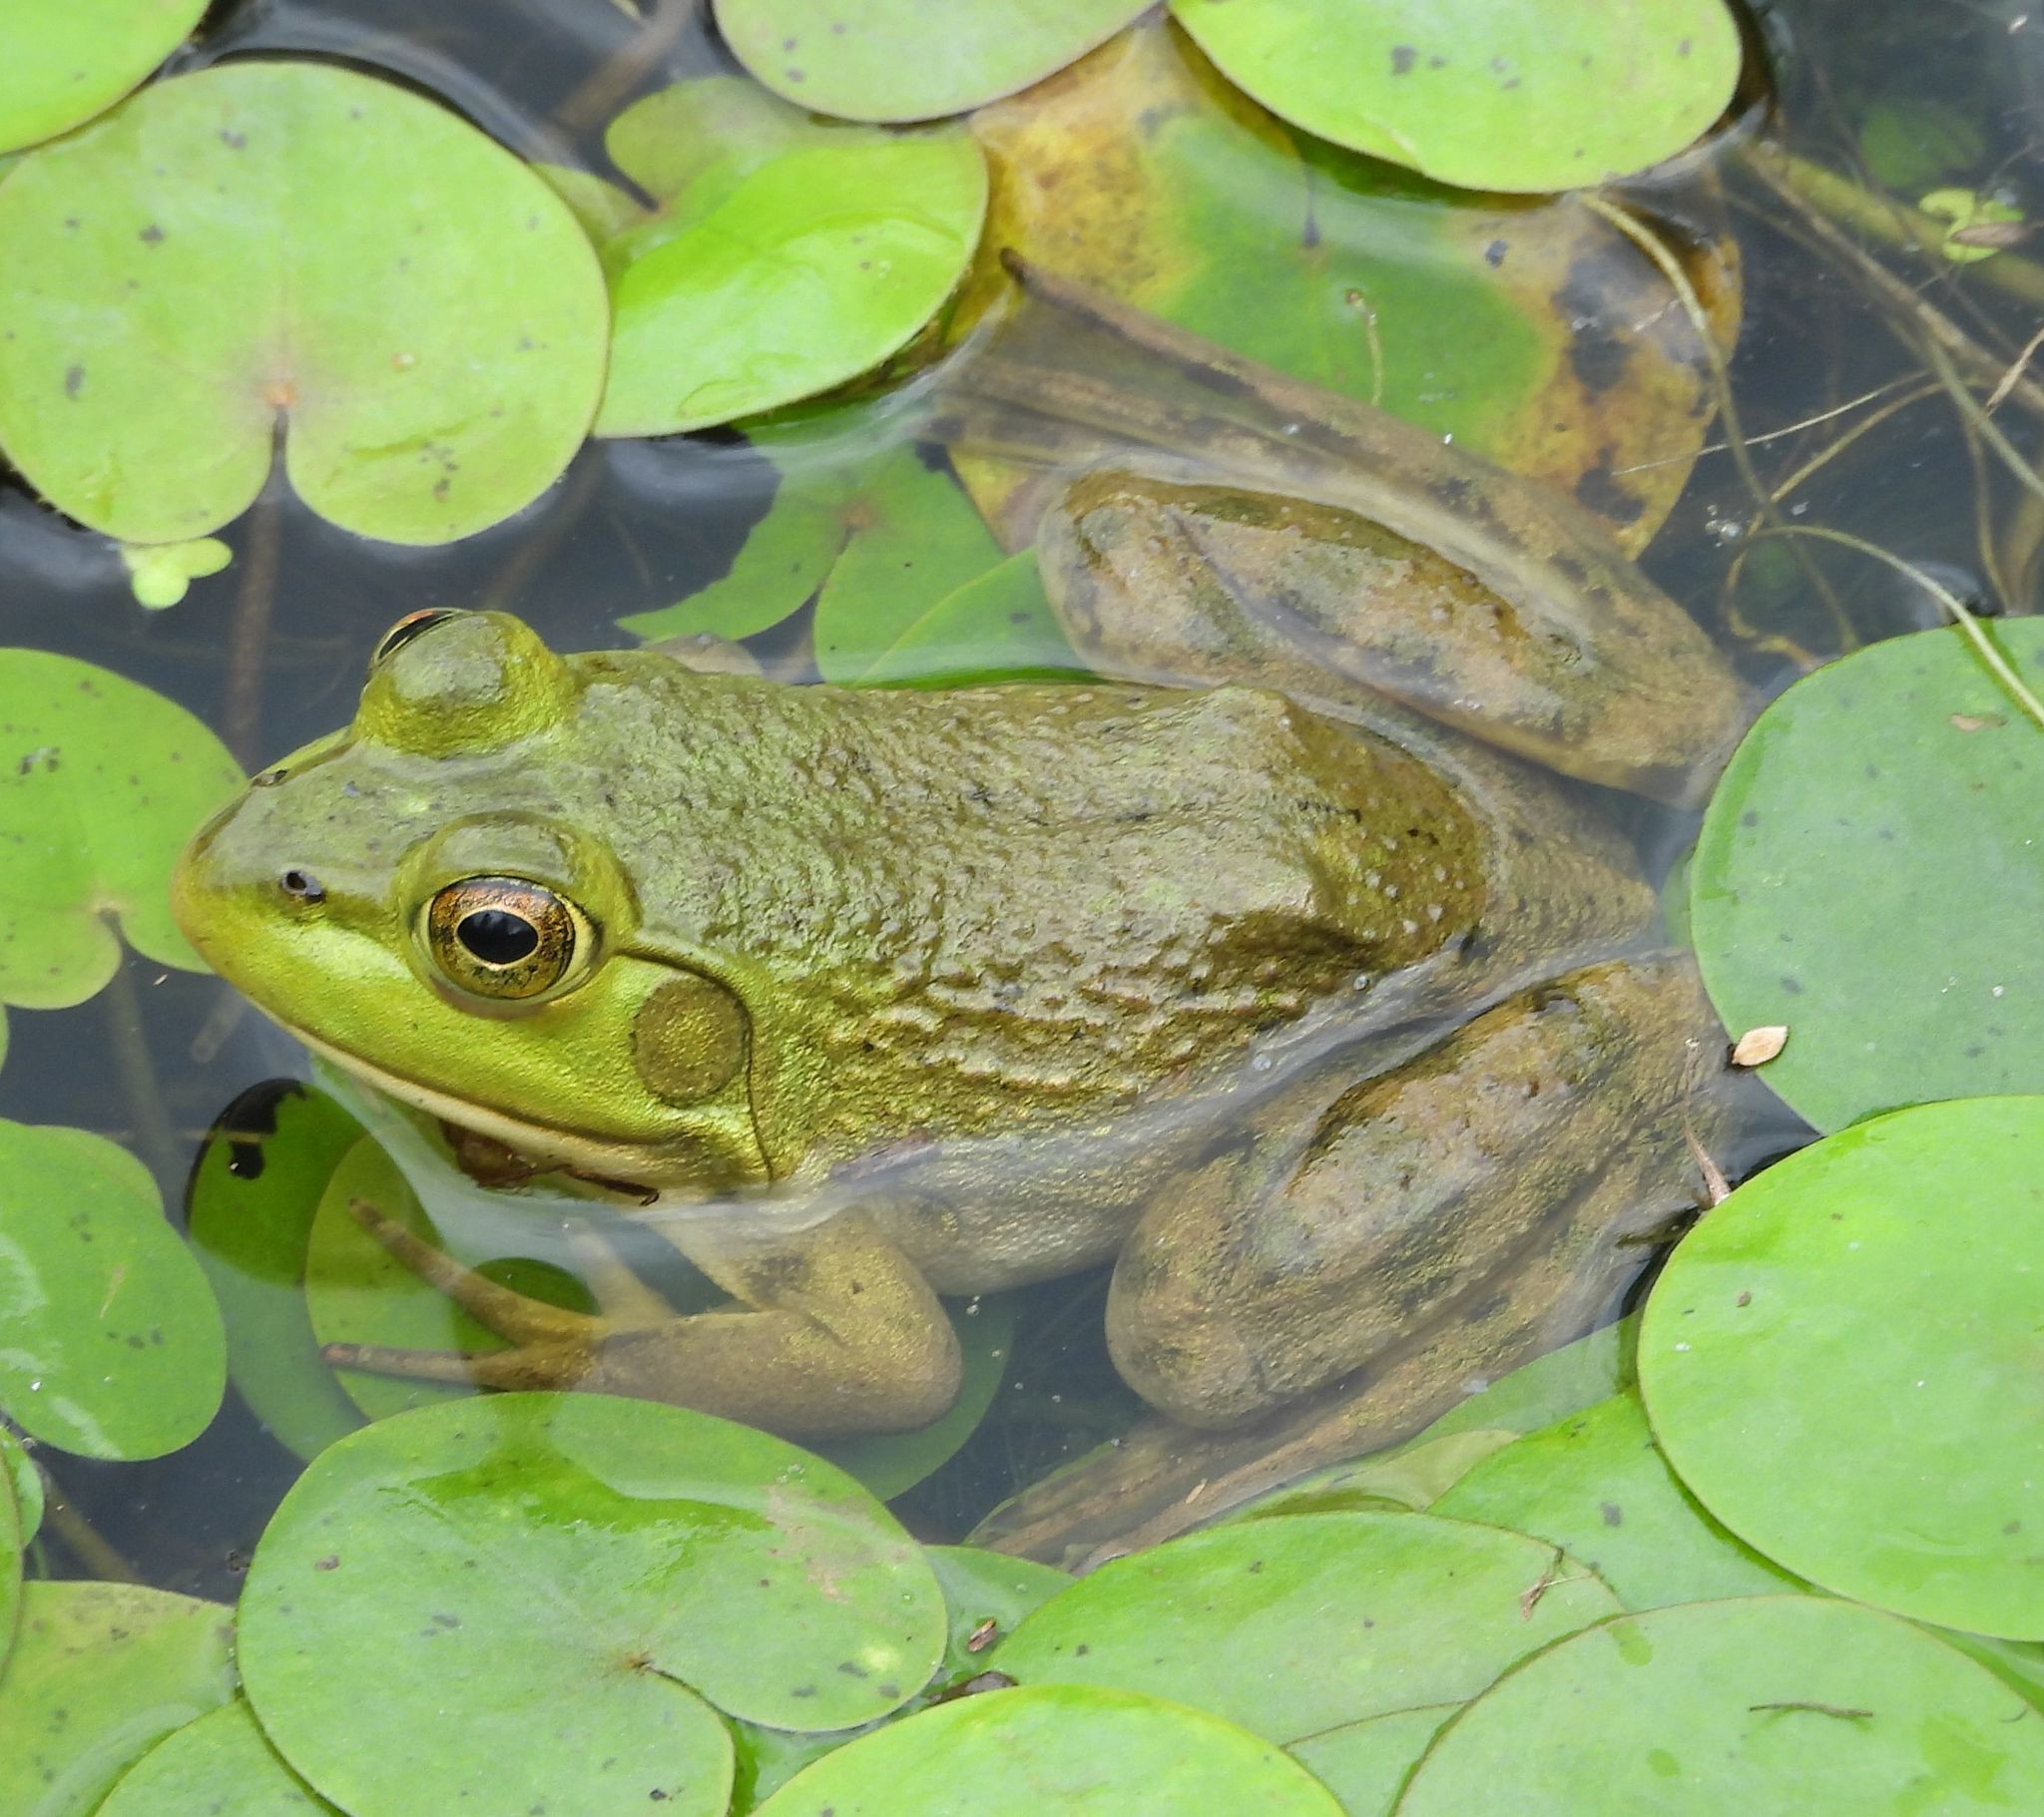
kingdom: Animalia
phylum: Chordata
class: Amphibia
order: Anura
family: Ranidae
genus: Lithobates
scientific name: Lithobates catesbeianus
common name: American bullfrog
